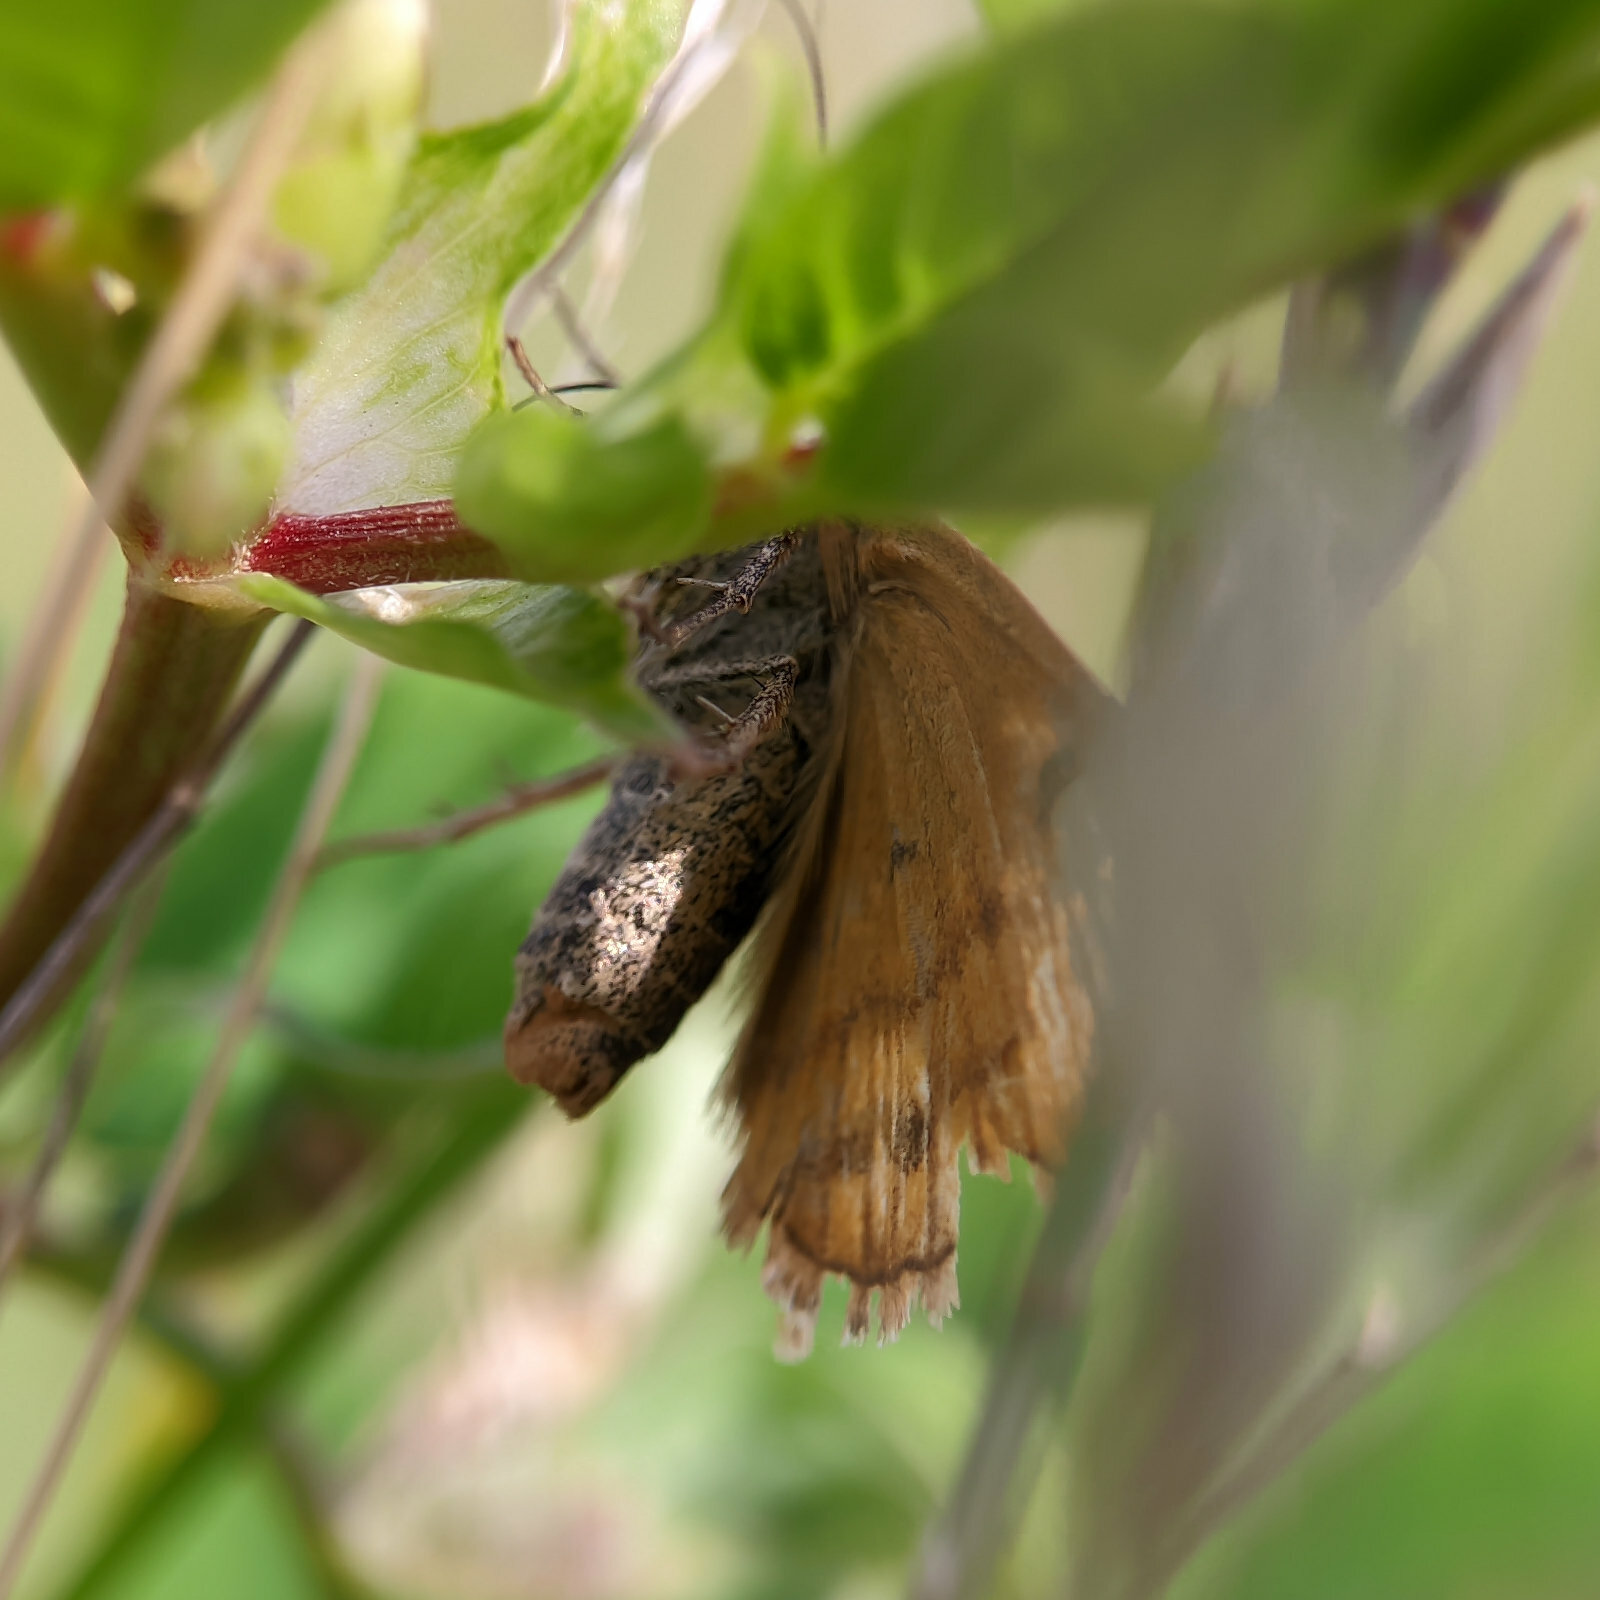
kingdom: Animalia
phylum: Arthropoda
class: Insecta
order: Lepidoptera
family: Erebidae
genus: Euclidia
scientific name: Euclidia glyphica
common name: Burnet companion
